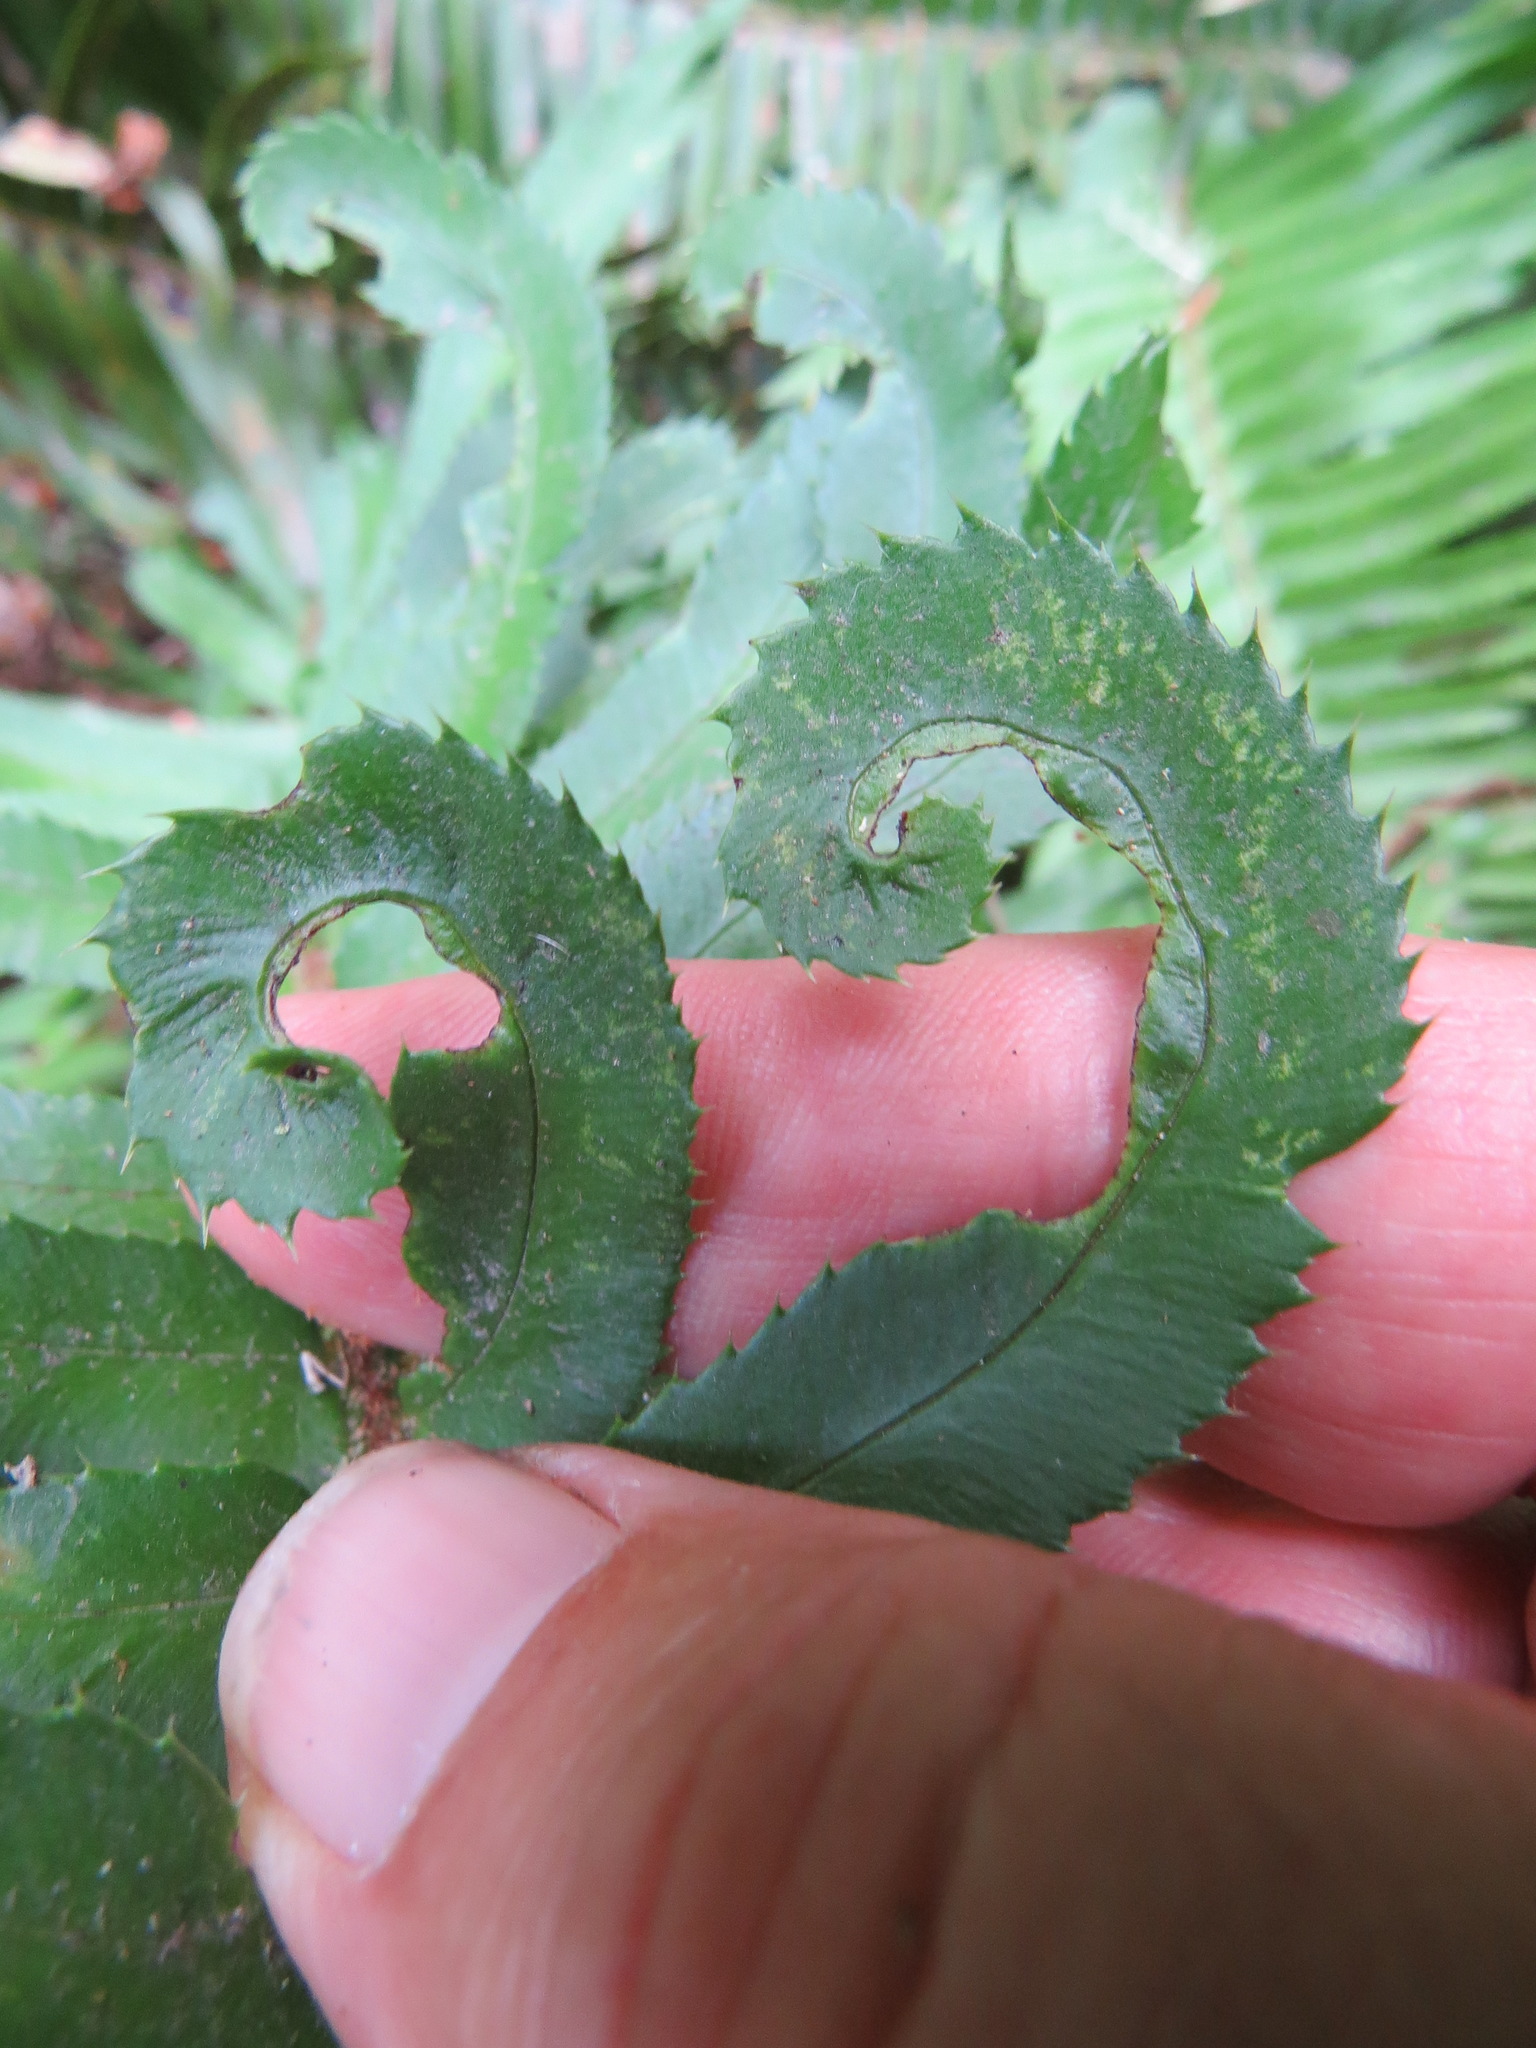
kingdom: Plantae
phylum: Tracheophyta
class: Polypodiopsida
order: Polypodiales
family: Dryopteridaceae
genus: Polystichum
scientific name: Polystichum munitum
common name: Western sword-fern
